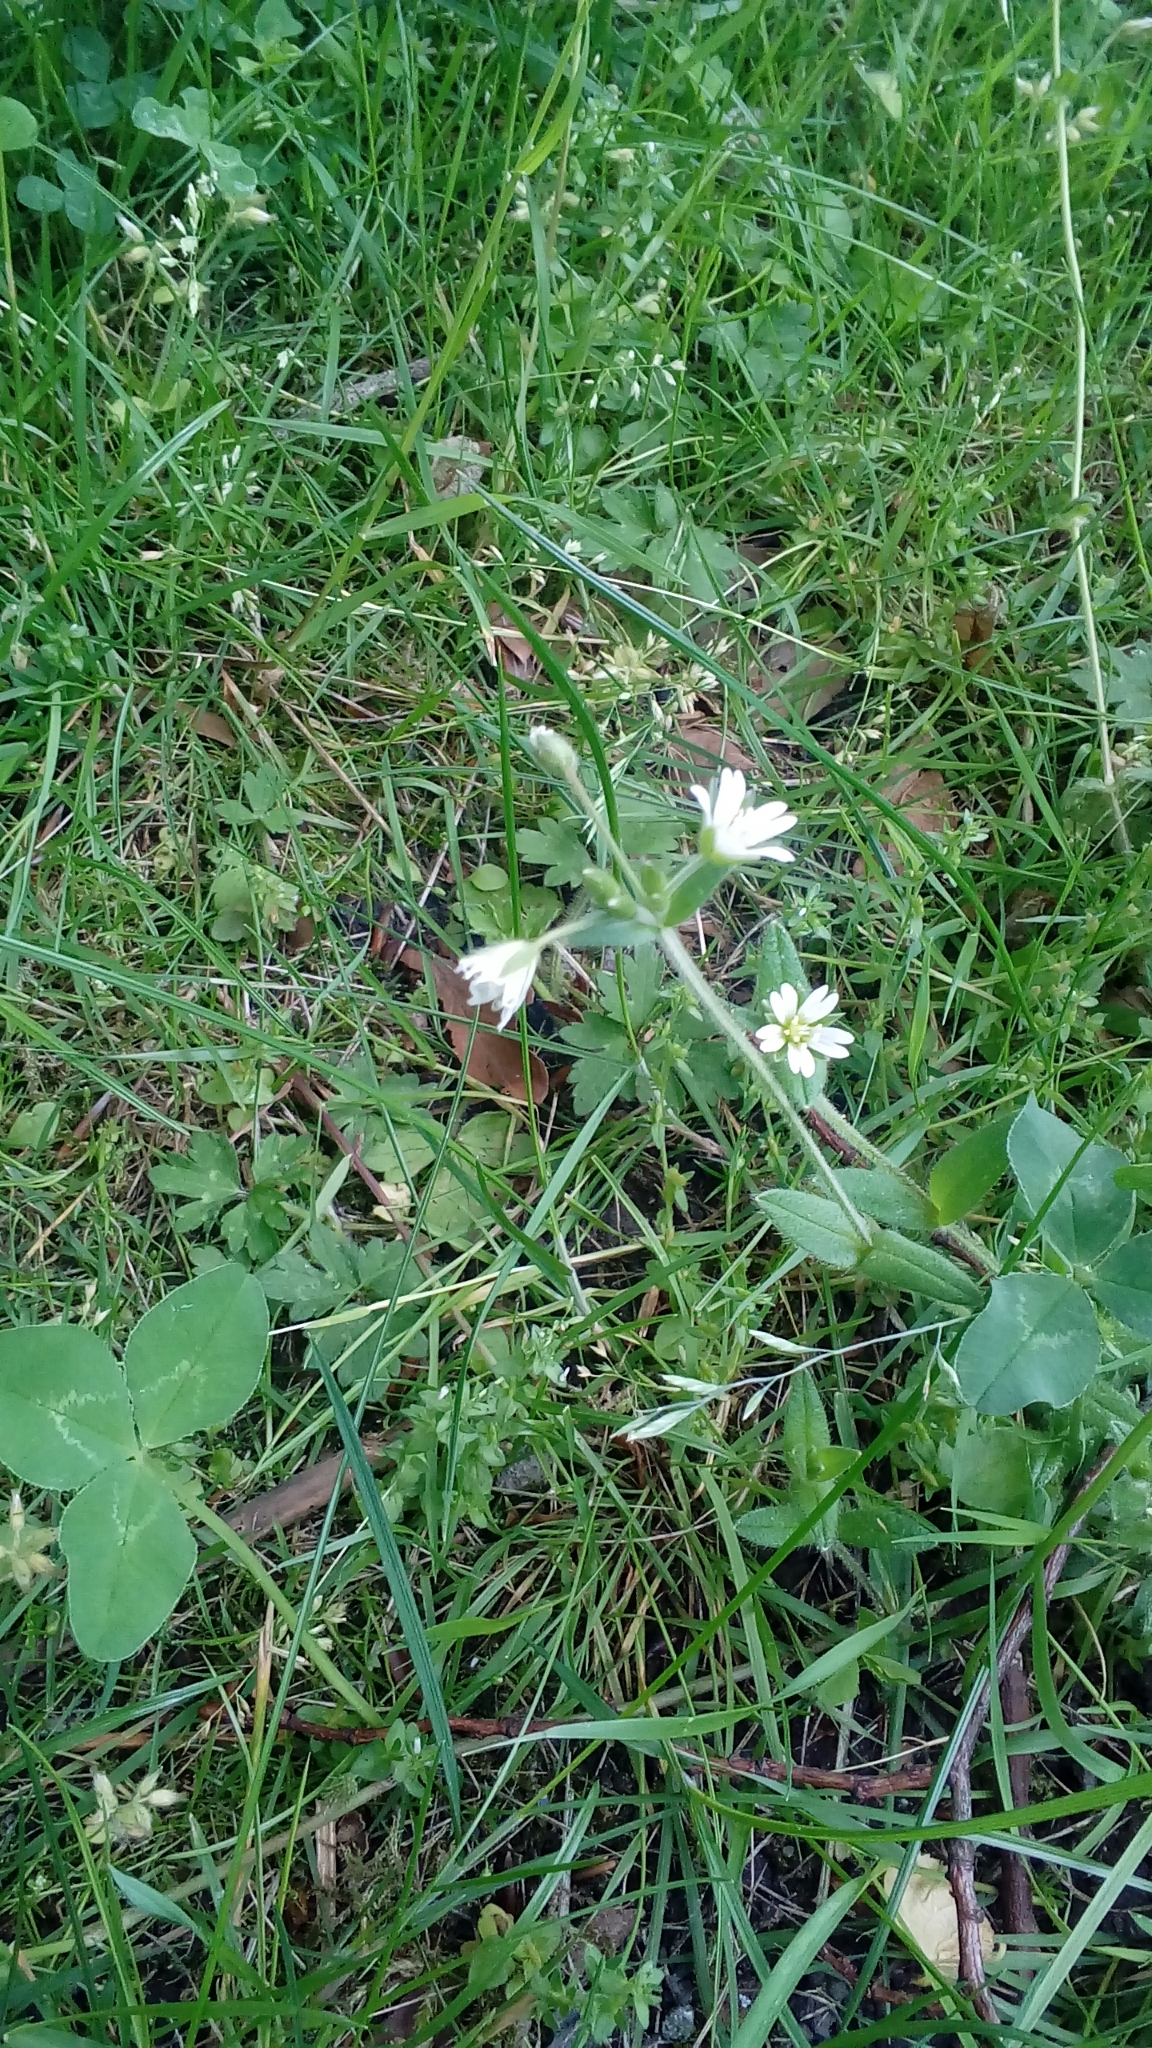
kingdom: Plantae
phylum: Tracheophyta
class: Magnoliopsida
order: Caryophyllales
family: Caryophyllaceae
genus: Cerastium
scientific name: Cerastium fontanum
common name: Common mouse-ear
